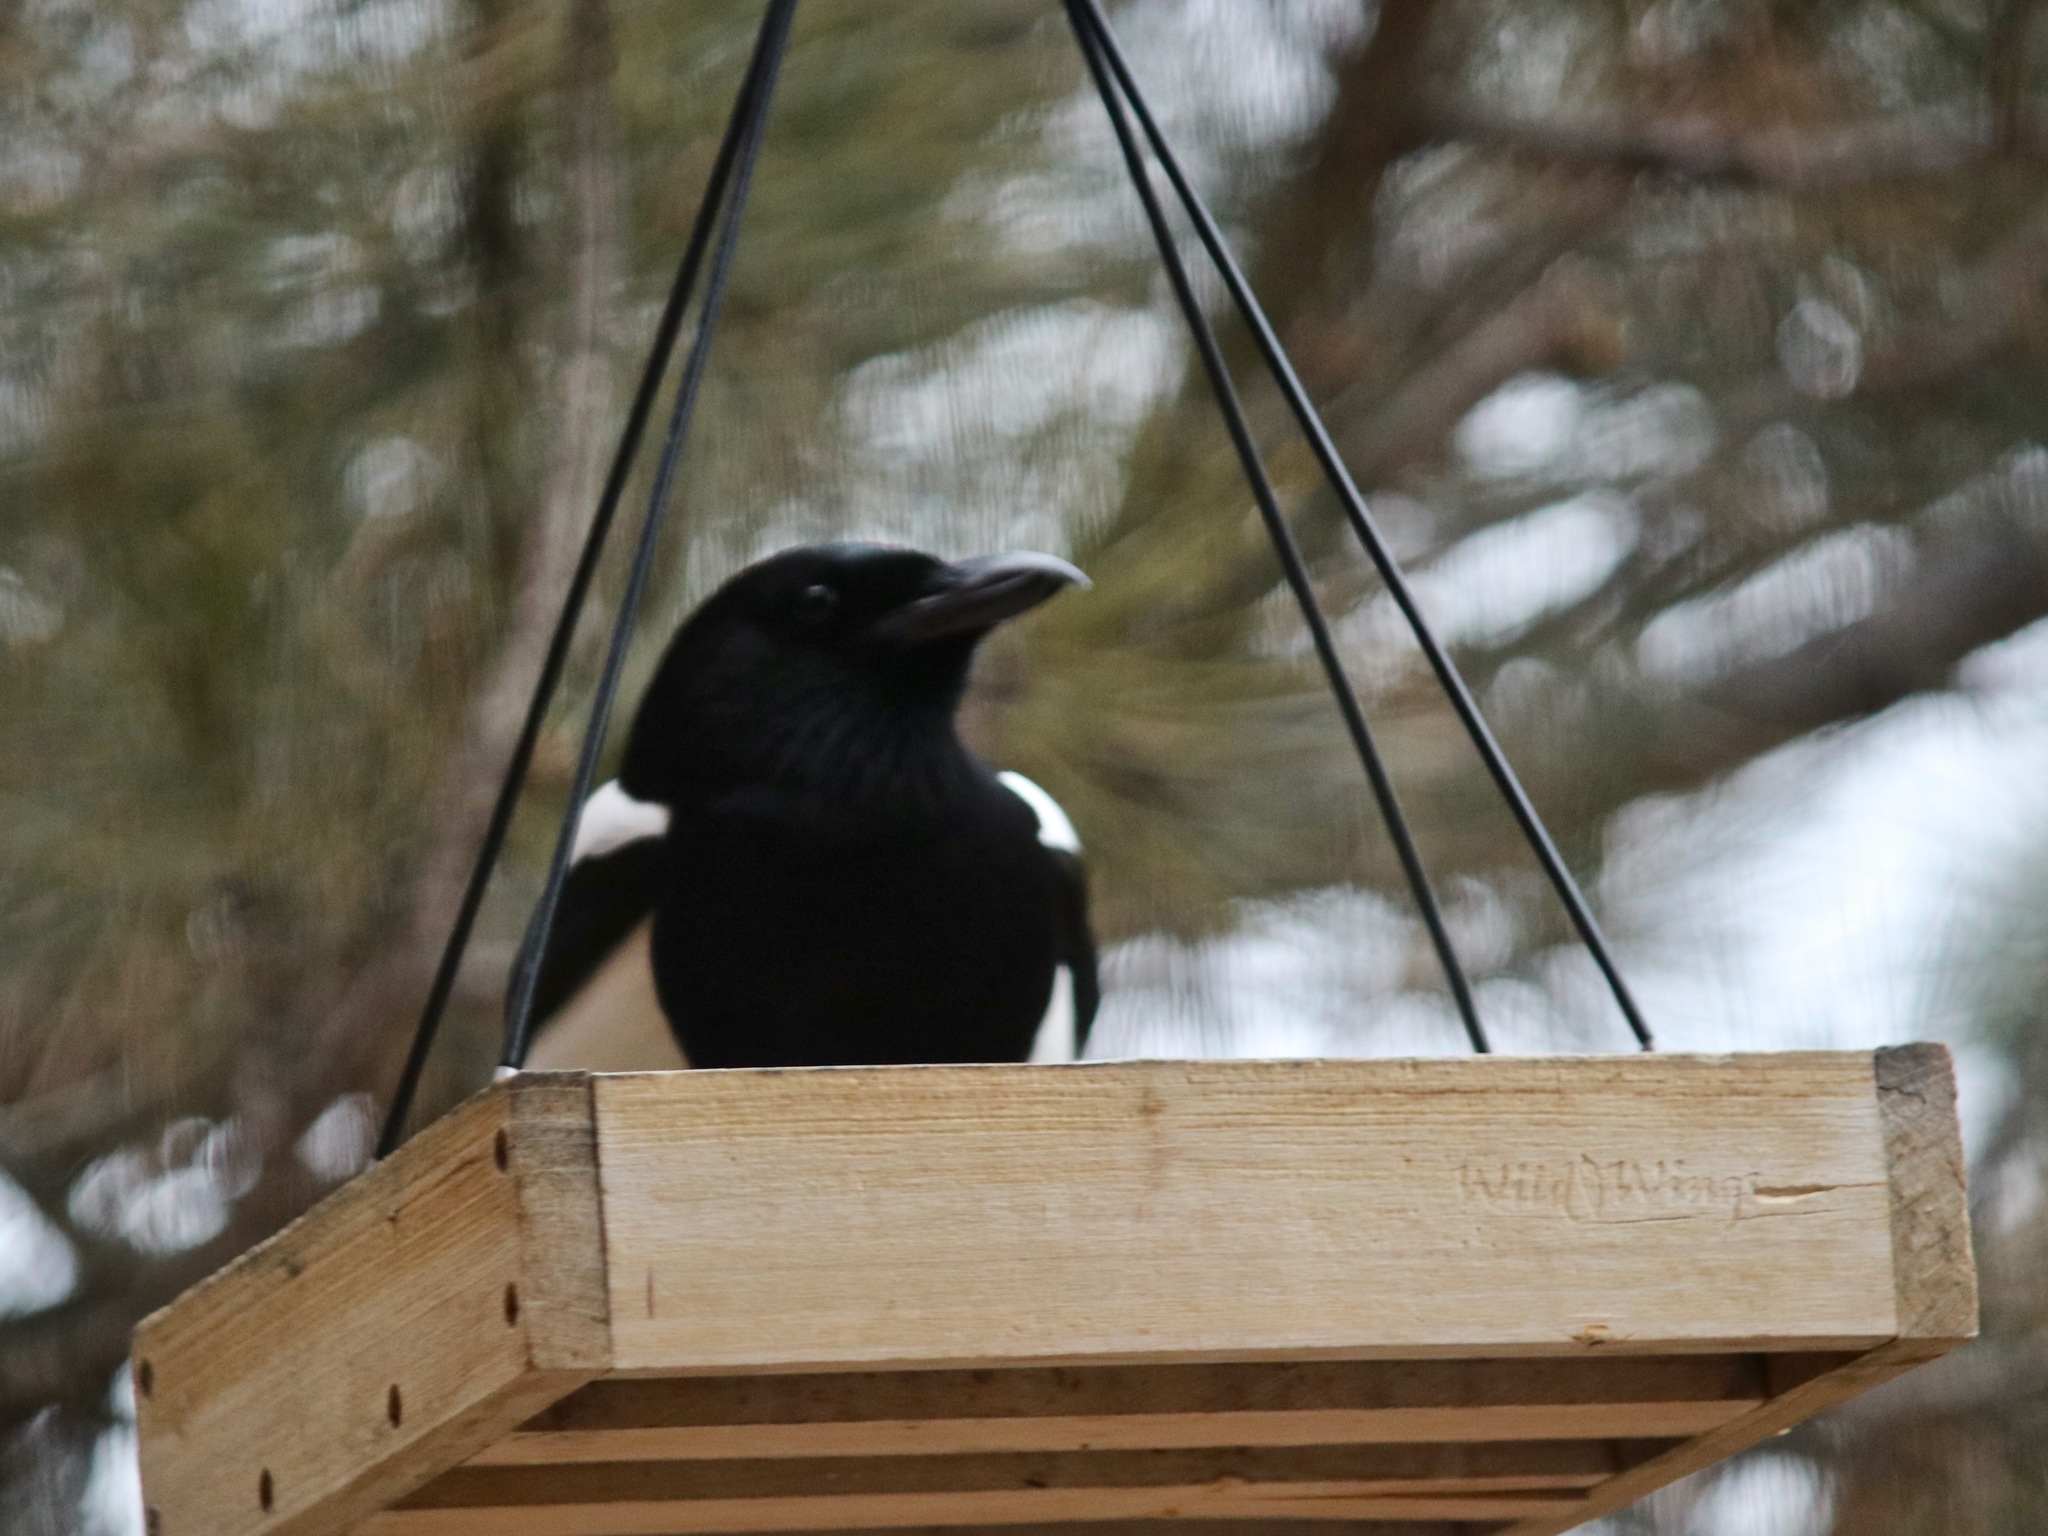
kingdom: Animalia
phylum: Chordata
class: Aves
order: Passeriformes
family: Corvidae
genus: Pica
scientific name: Pica hudsonia
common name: Black-billed magpie
